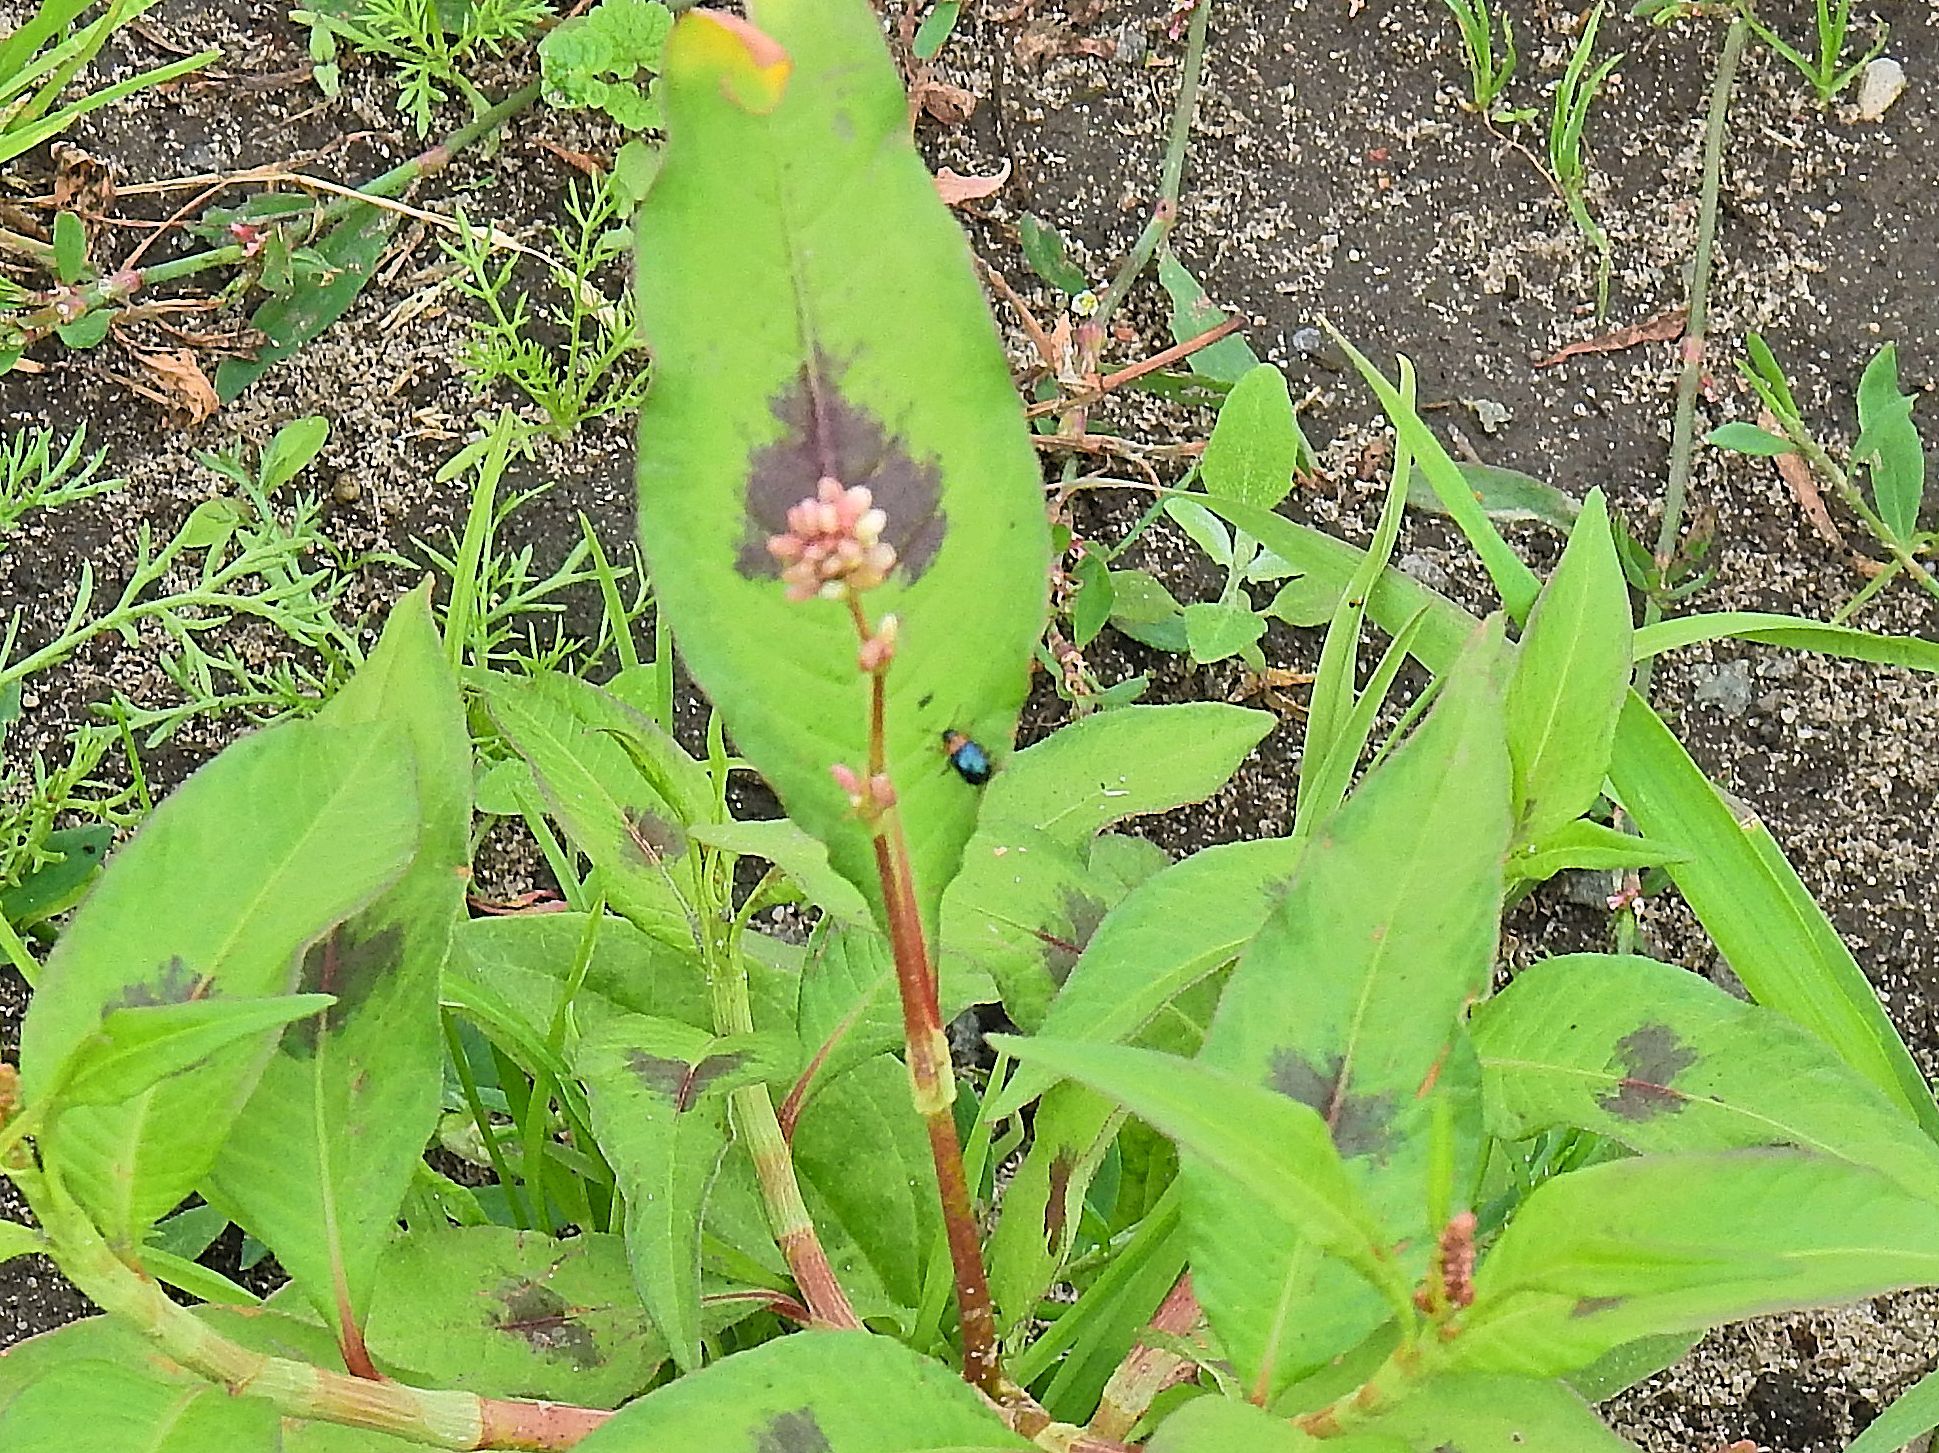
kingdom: Animalia
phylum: Arthropoda
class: Insecta
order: Coleoptera
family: Chrysomelidae
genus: Gastrophysa
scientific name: Gastrophysa polygoni
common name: Knotweed leaf beetle
